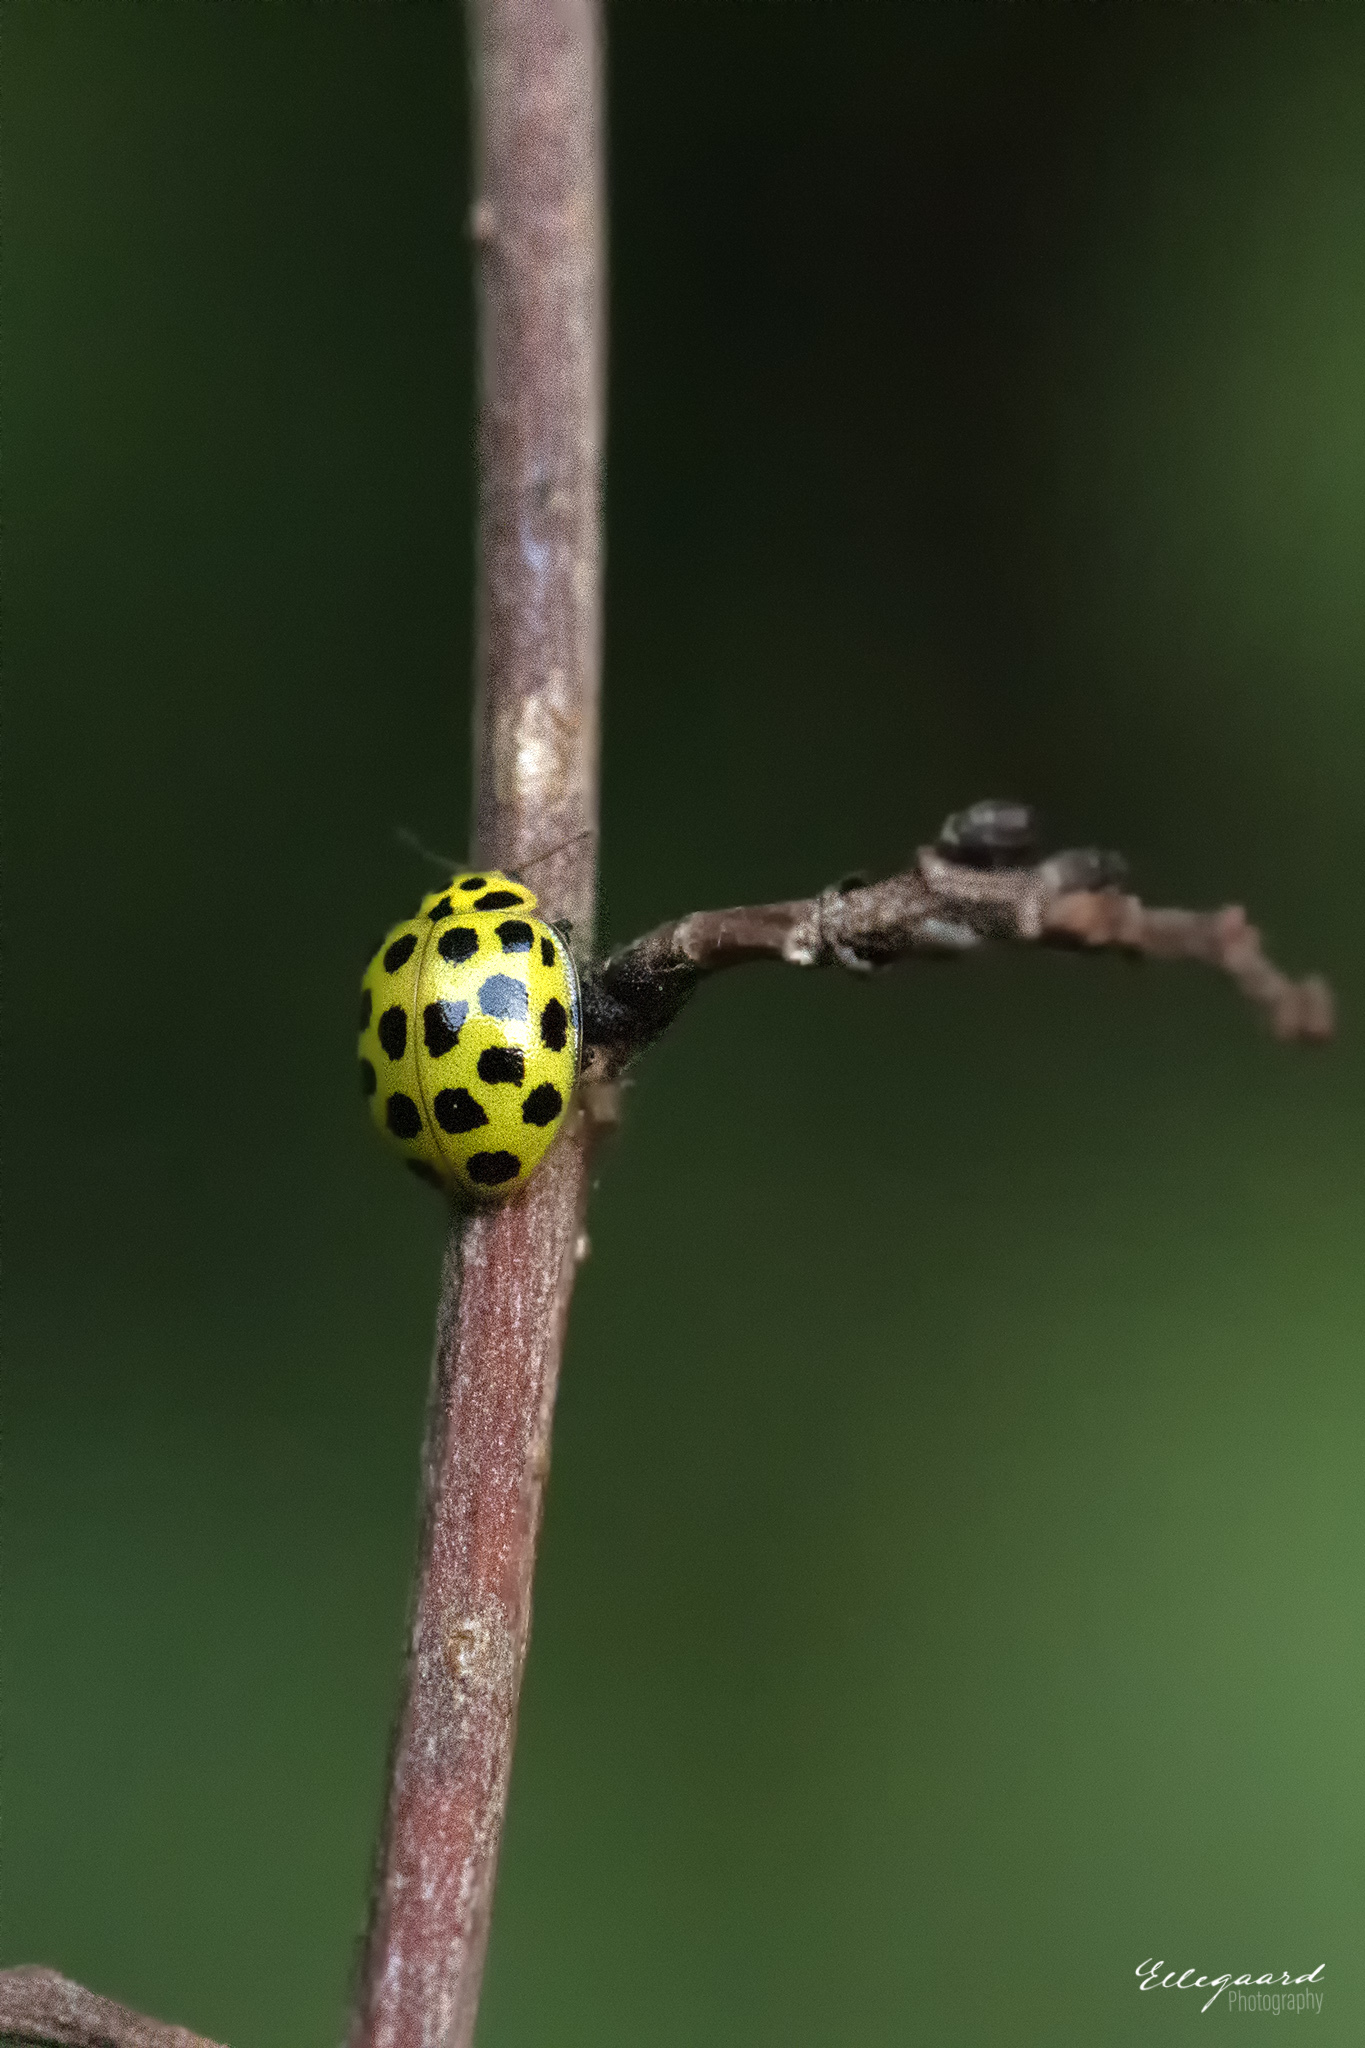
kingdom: Animalia
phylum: Arthropoda
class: Insecta
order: Coleoptera
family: Coccinellidae
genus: Psyllobora
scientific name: Psyllobora vigintiduopunctata
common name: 22-spot ladybird
